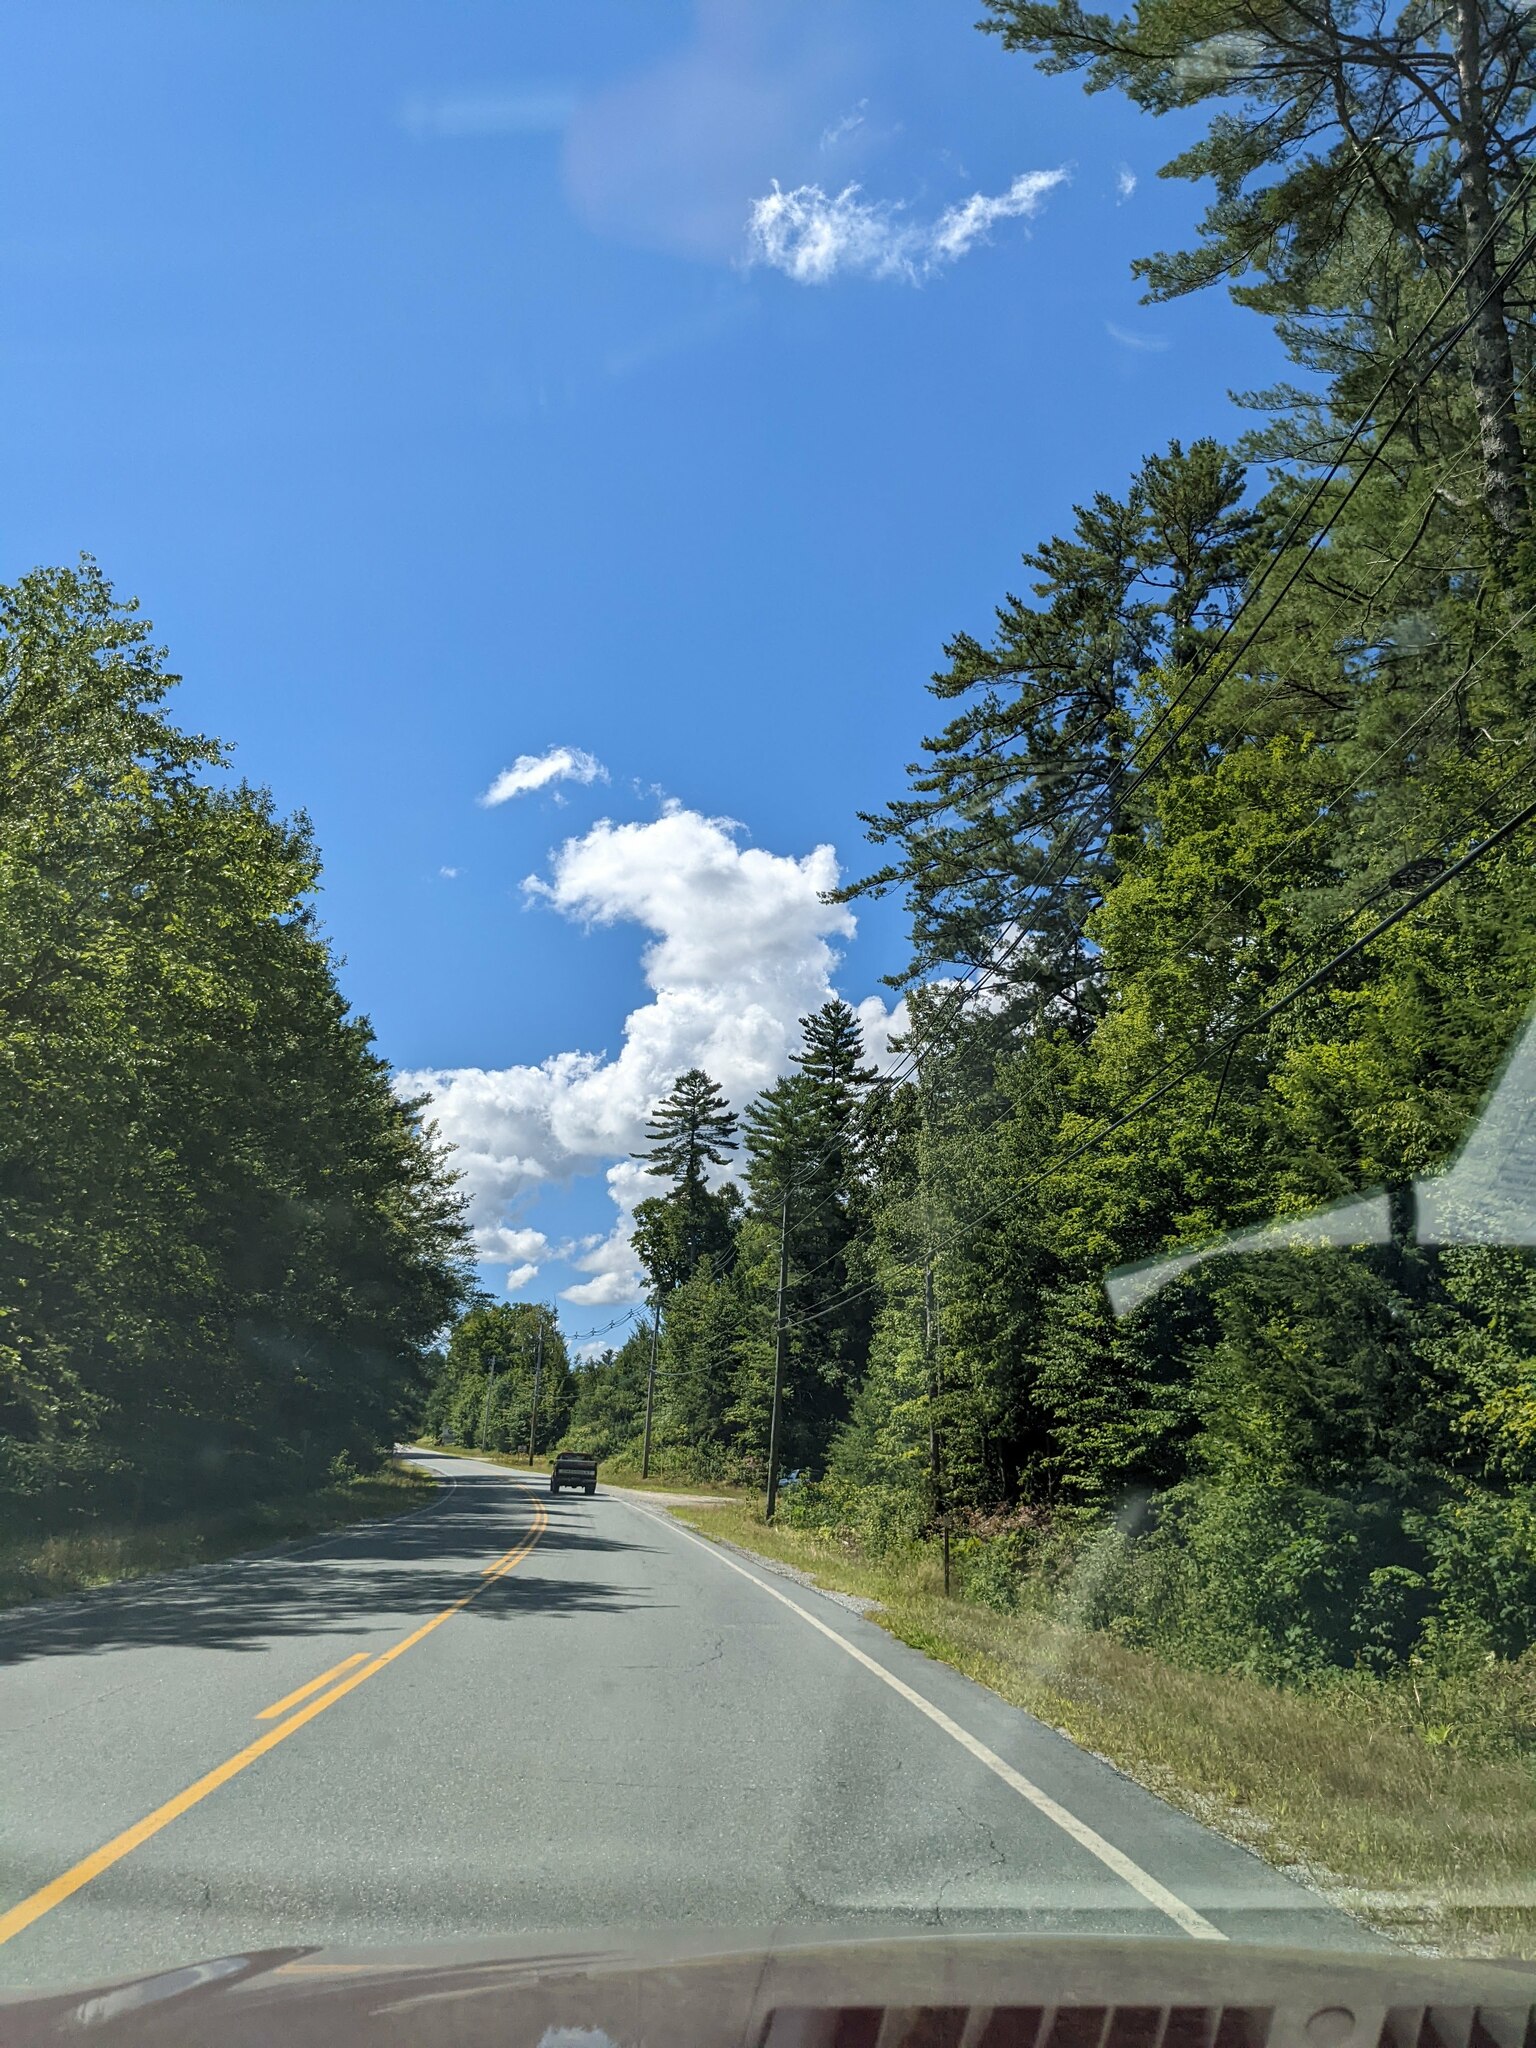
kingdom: Plantae
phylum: Tracheophyta
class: Pinopsida
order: Pinales
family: Pinaceae
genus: Pinus
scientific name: Pinus strobus
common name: Weymouth pine
